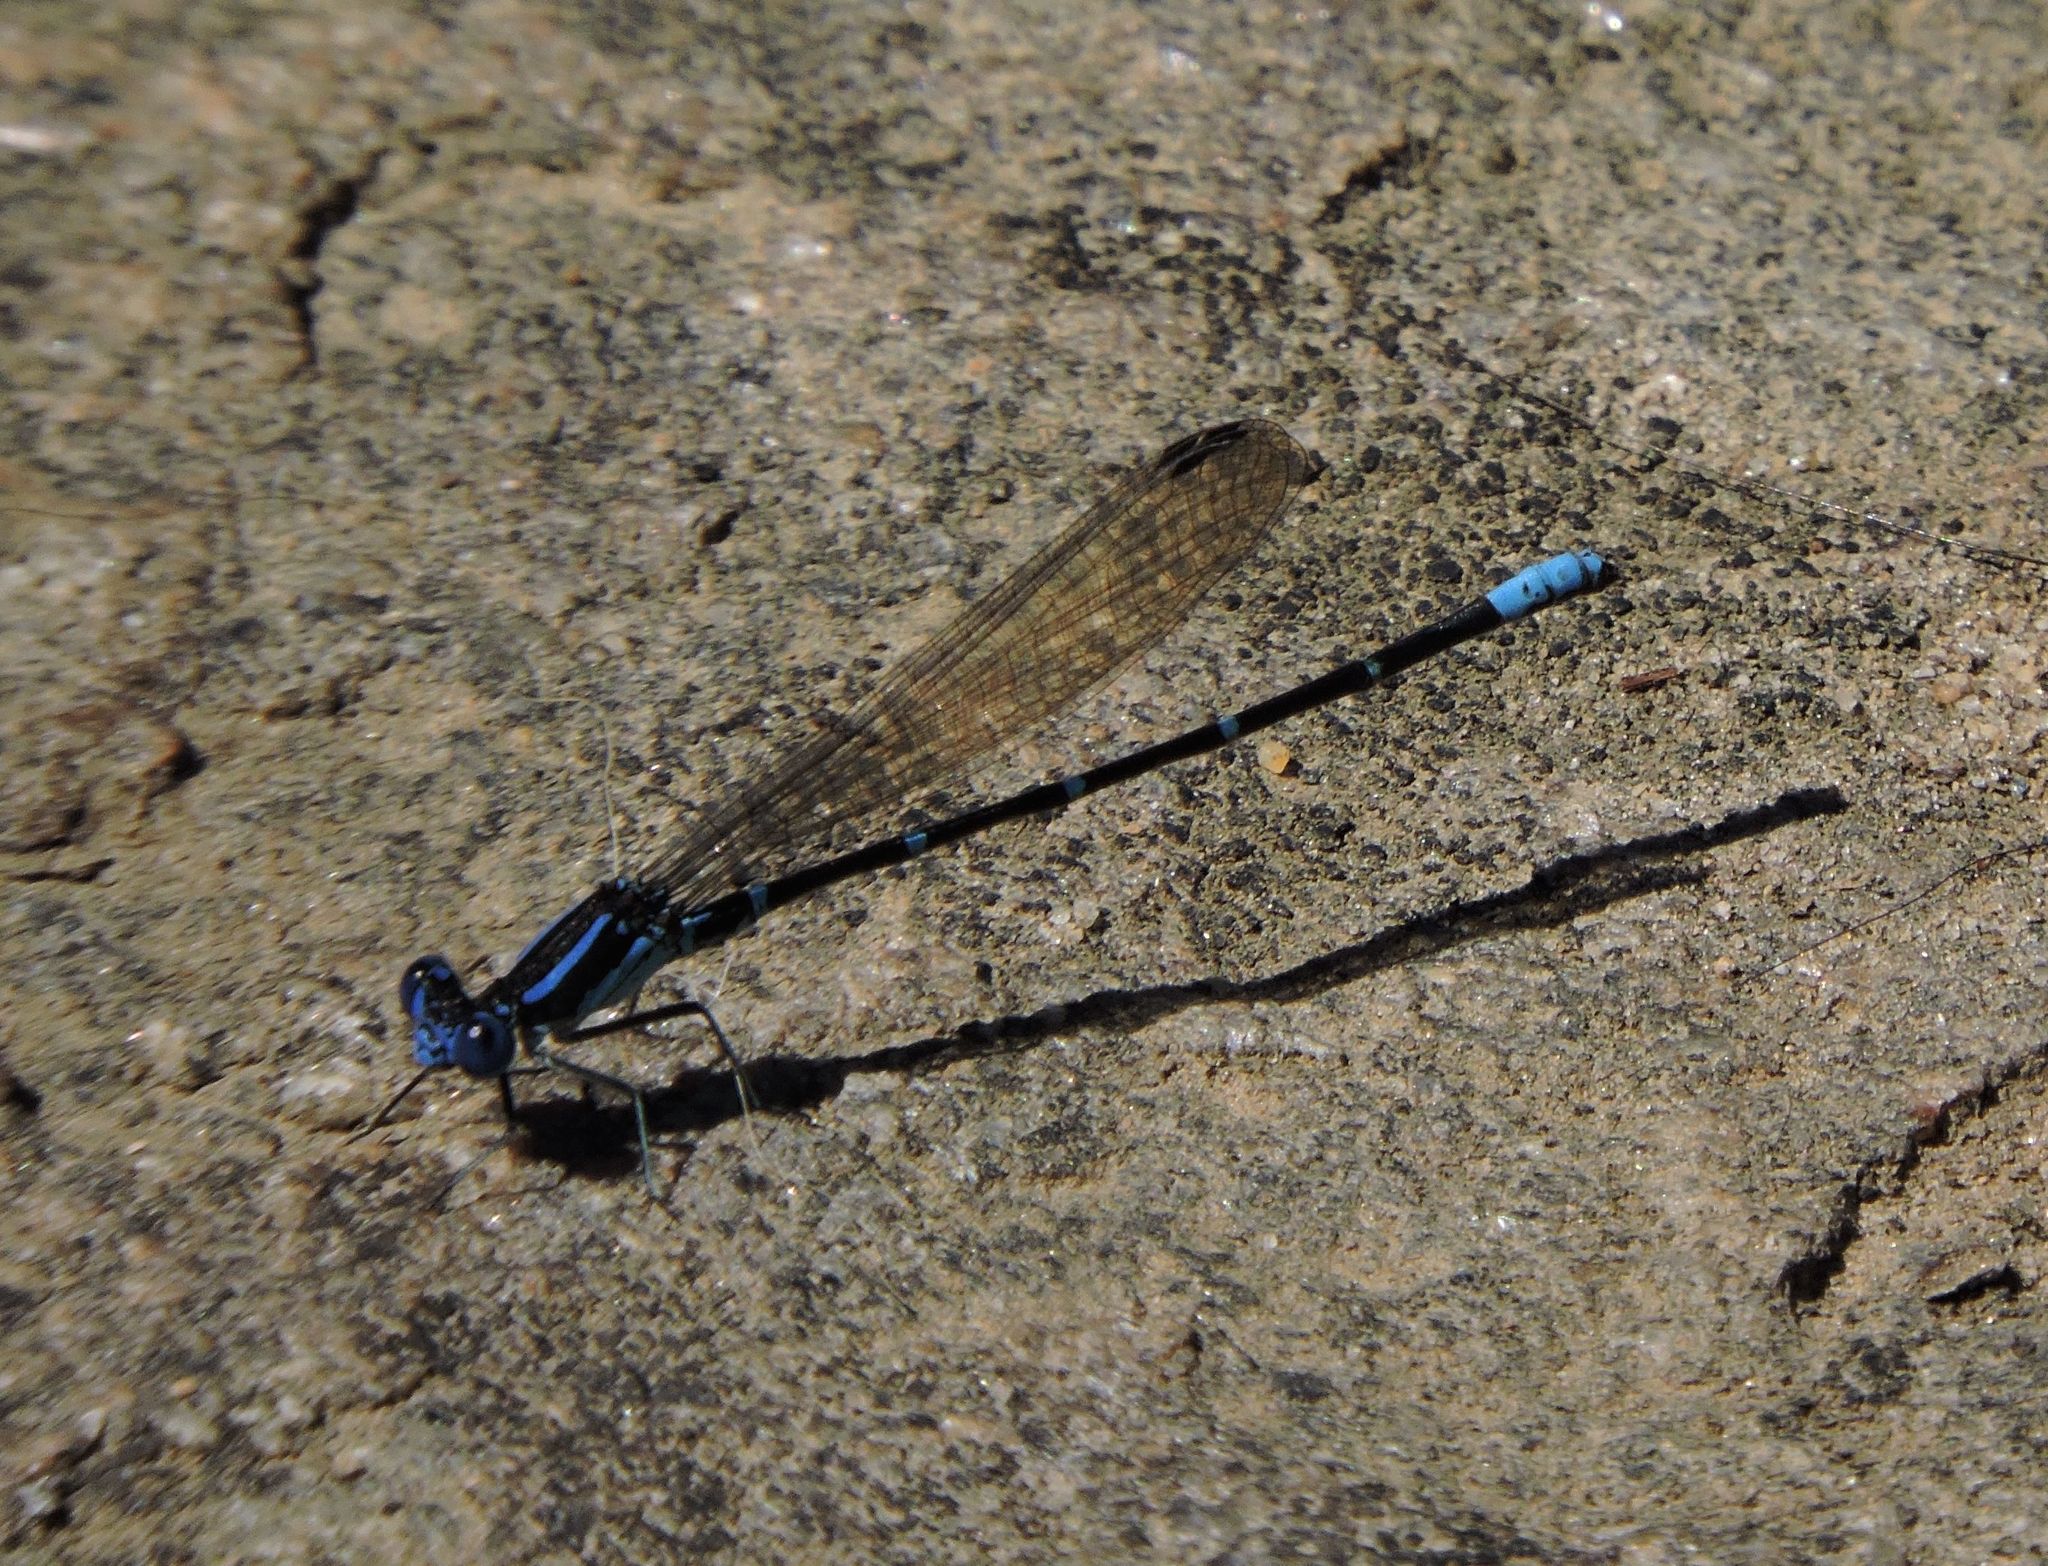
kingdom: Animalia
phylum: Arthropoda
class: Insecta
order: Odonata
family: Coenagrionidae
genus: Argia
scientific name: Argia sedula
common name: Blue-ringed dancer
